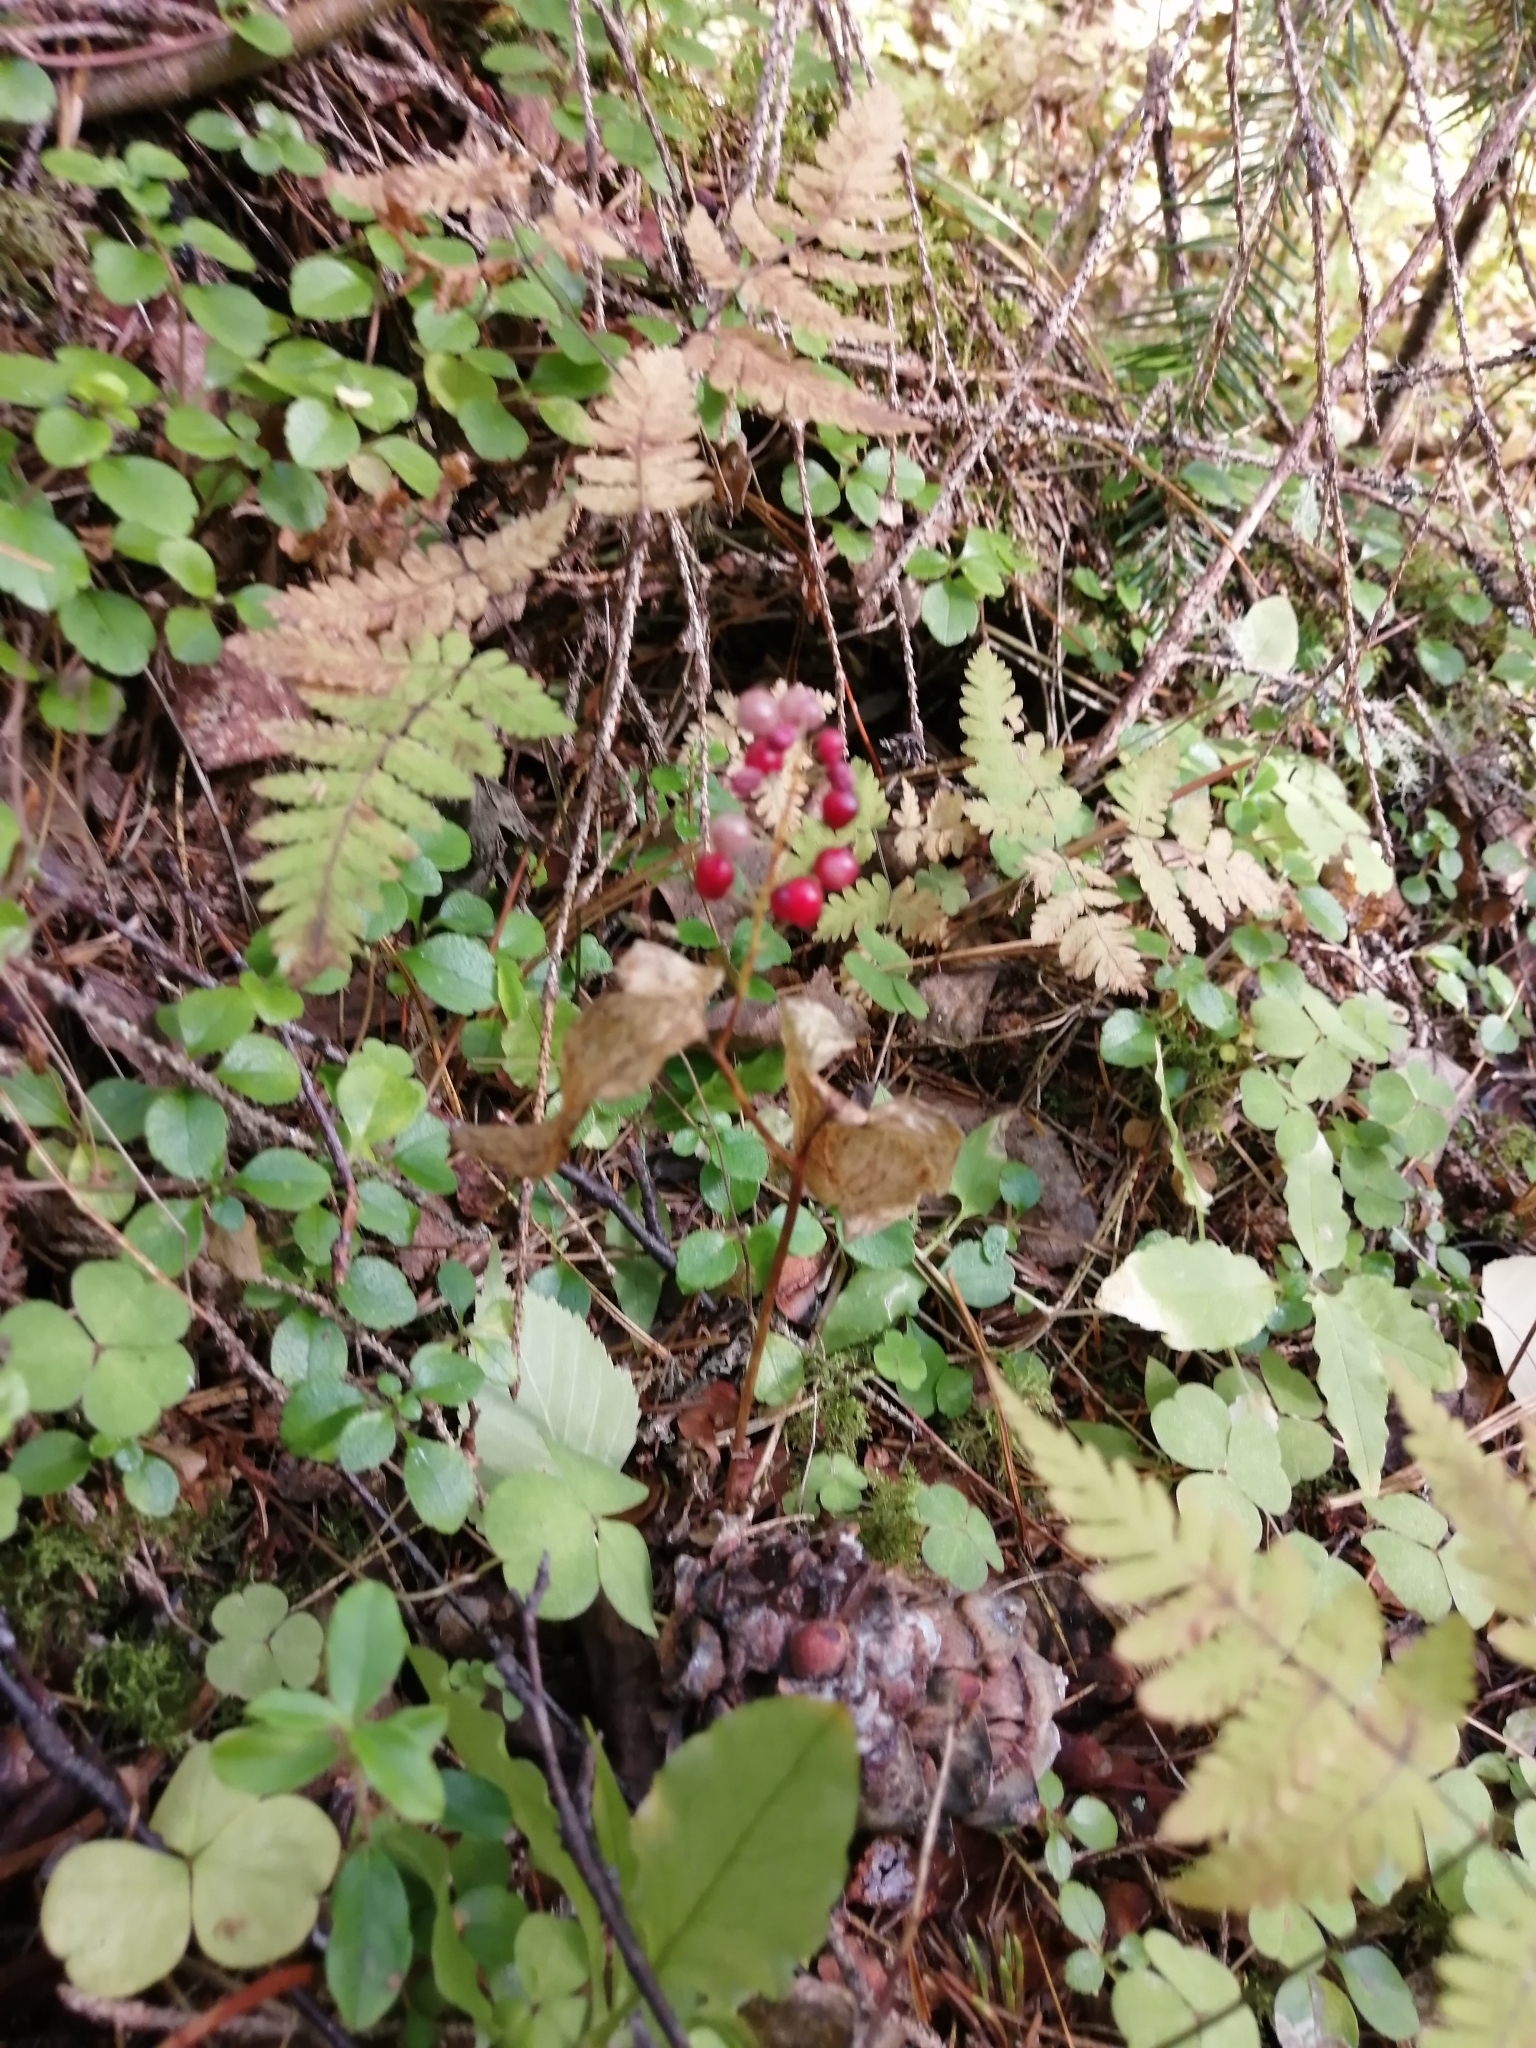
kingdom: Plantae
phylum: Tracheophyta
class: Liliopsida
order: Asparagales
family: Asparagaceae
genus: Maianthemum
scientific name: Maianthemum bifolium
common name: May lily
